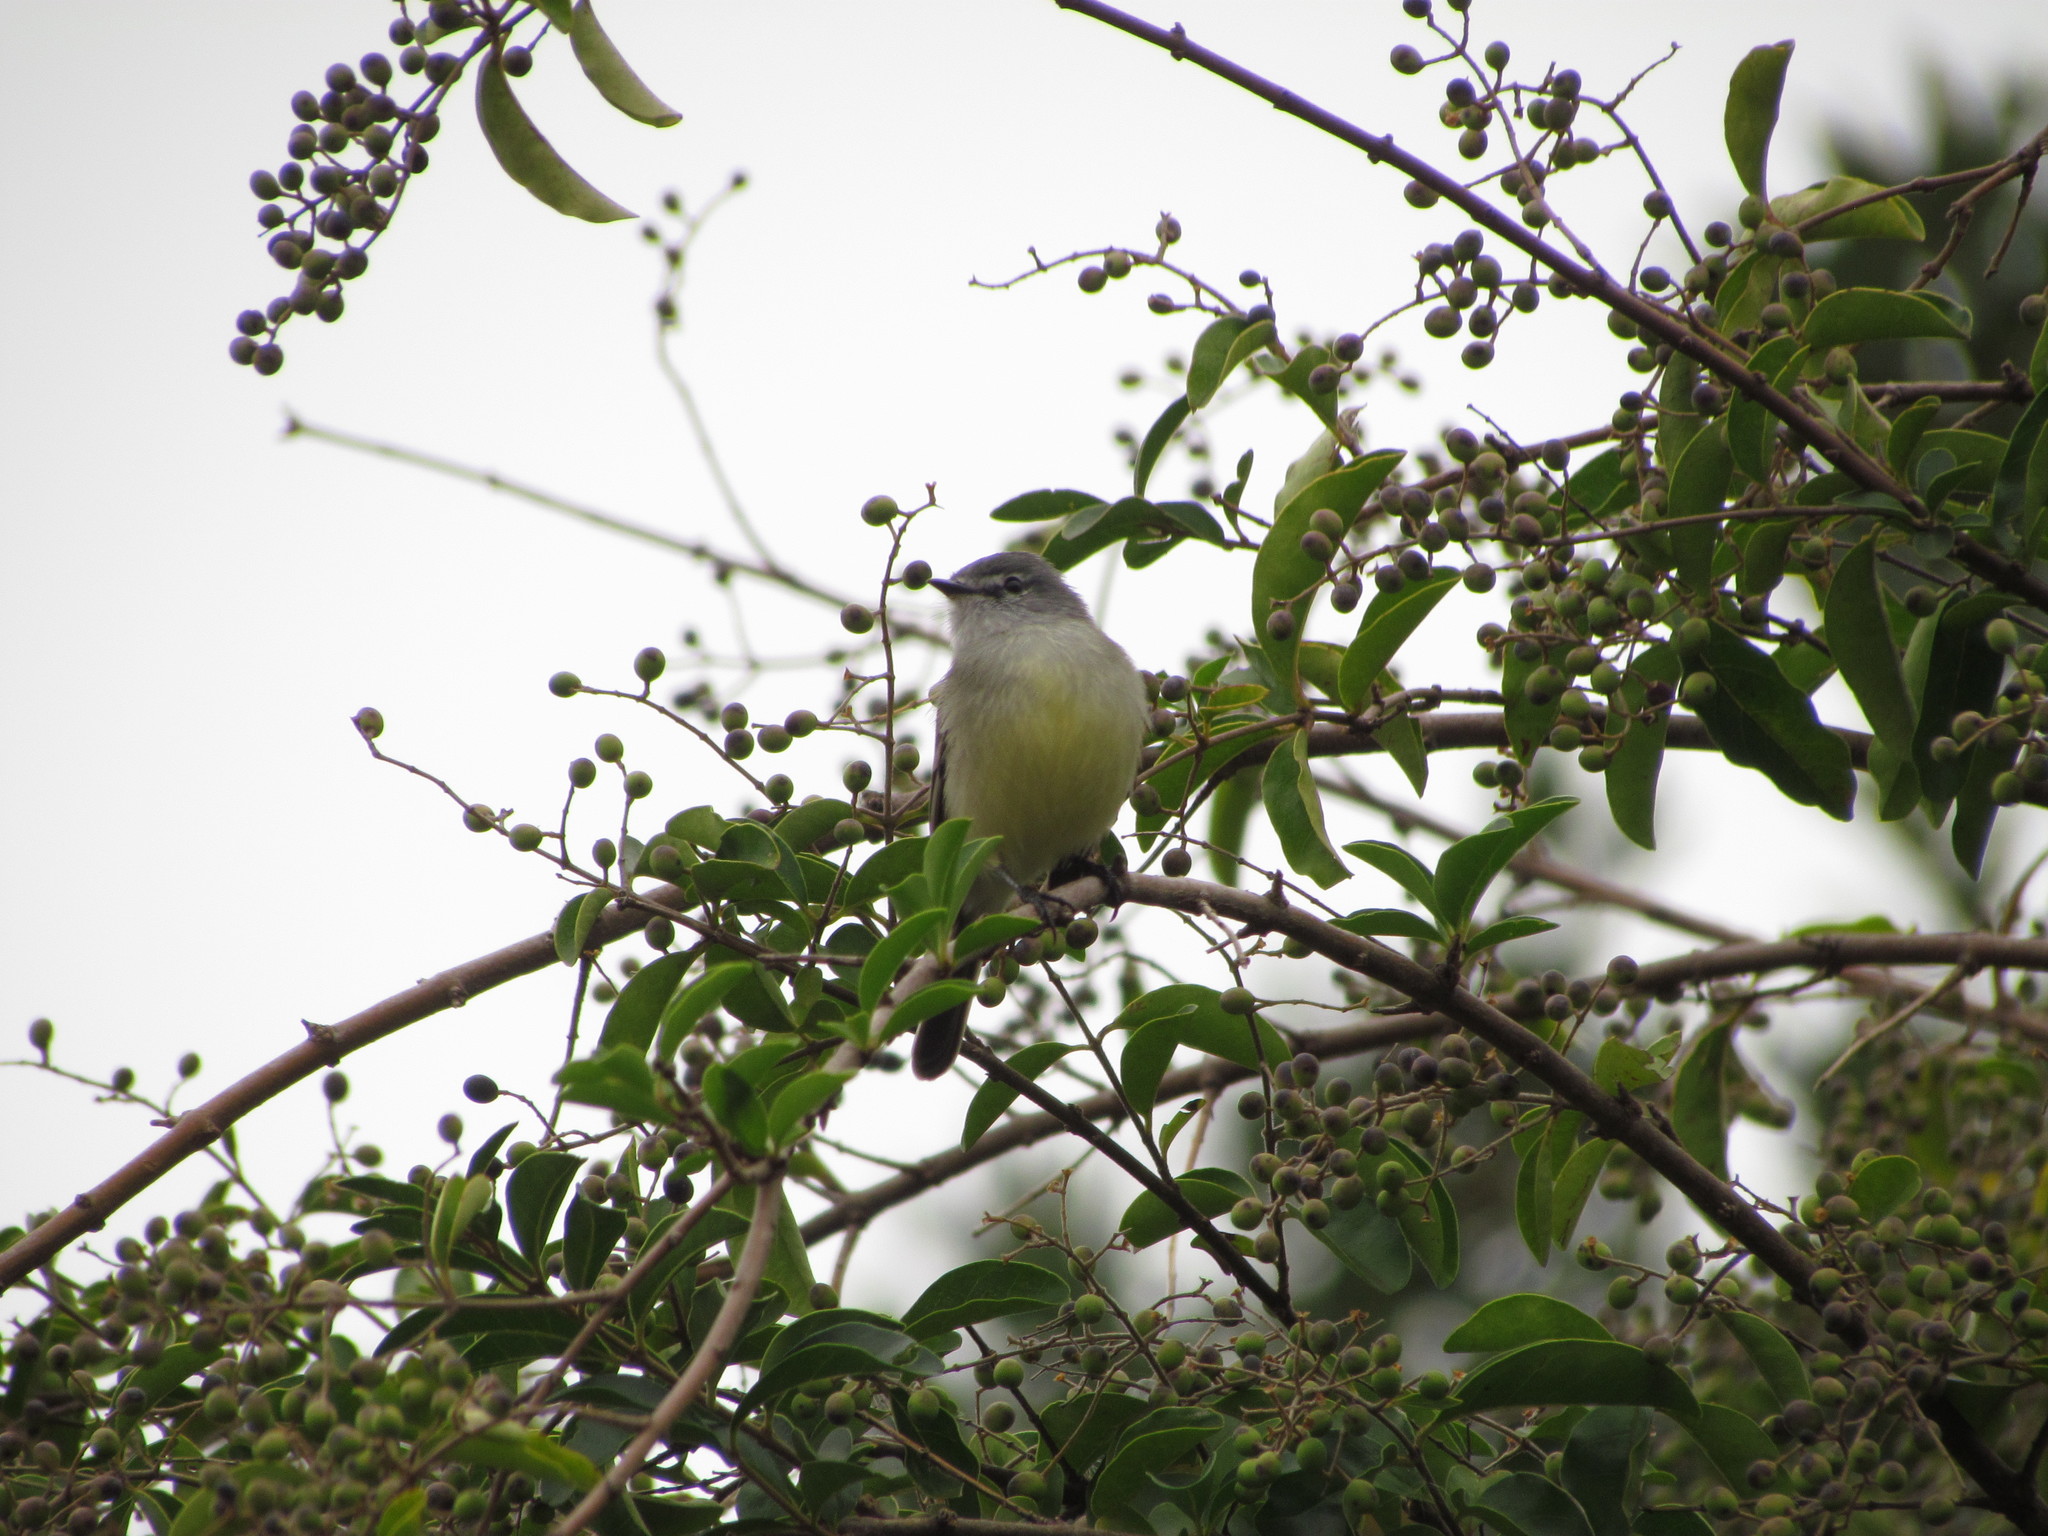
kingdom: Animalia
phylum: Chordata
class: Aves
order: Passeriformes
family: Tyrannidae
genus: Serpophaga
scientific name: Serpophaga subcristata
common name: White-crested tyrannulet
